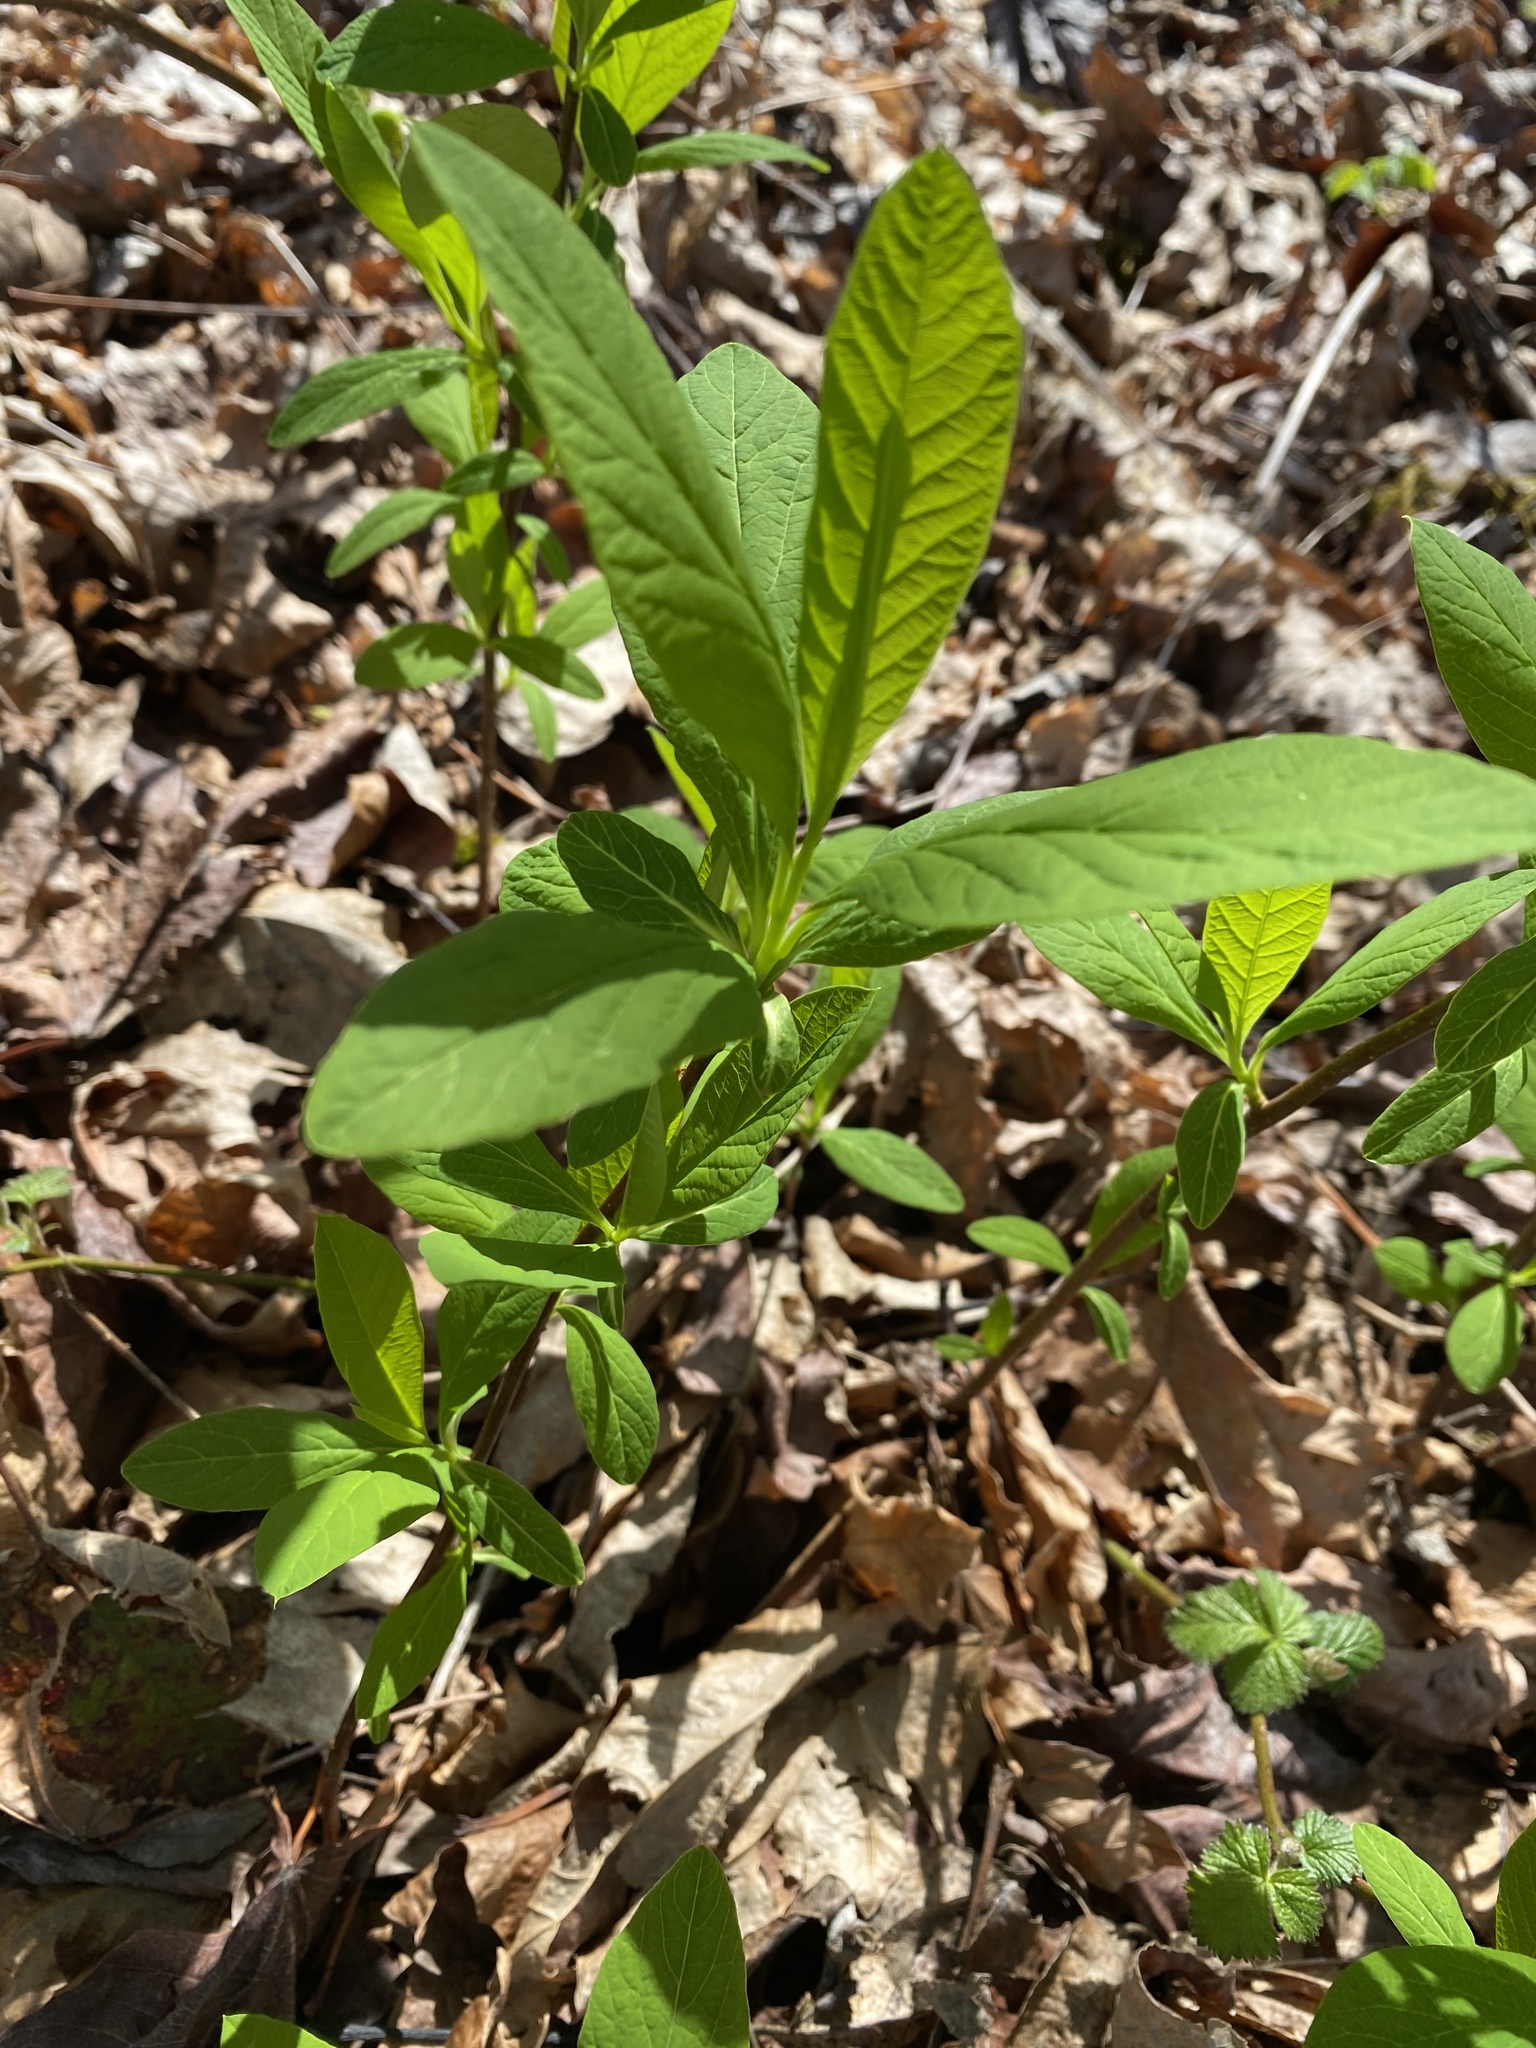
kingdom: Plantae
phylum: Tracheophyta
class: Magnoliopsida
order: Rosales
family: Rosaceae
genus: Oemleria
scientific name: Oemleria cerasiformis
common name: Osoberry
